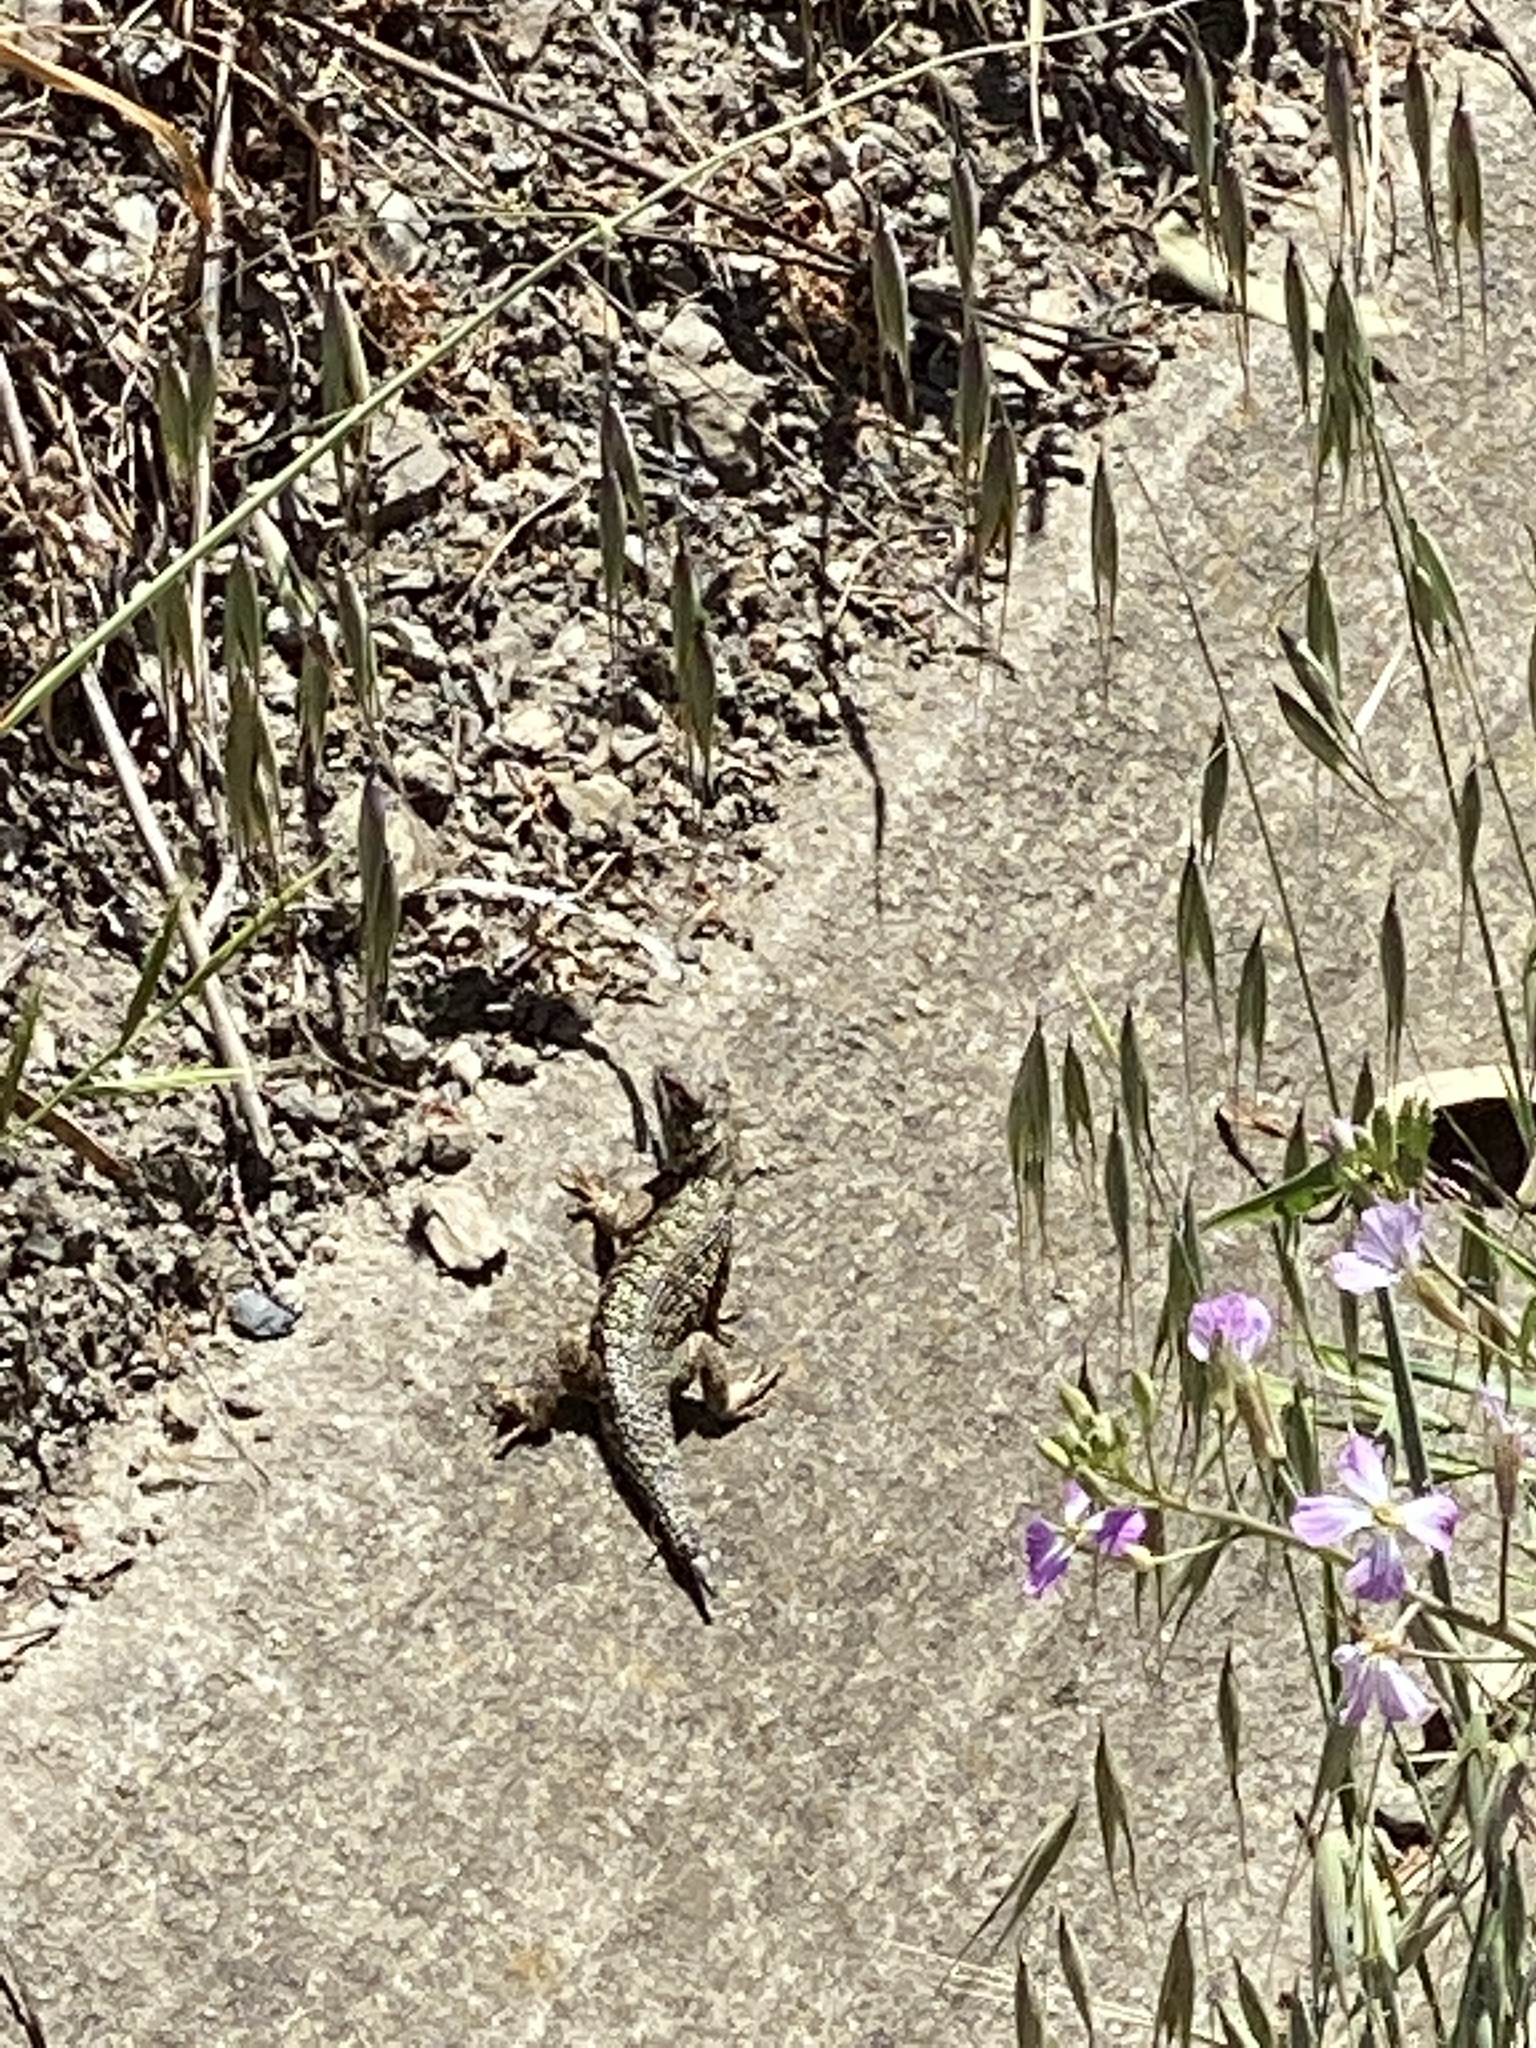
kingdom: Animalia
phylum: Chordata
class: Squamata
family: Phrynosomatidae
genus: Sceloporus
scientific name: Sceloporus occidentalis
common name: Western fence lizard
